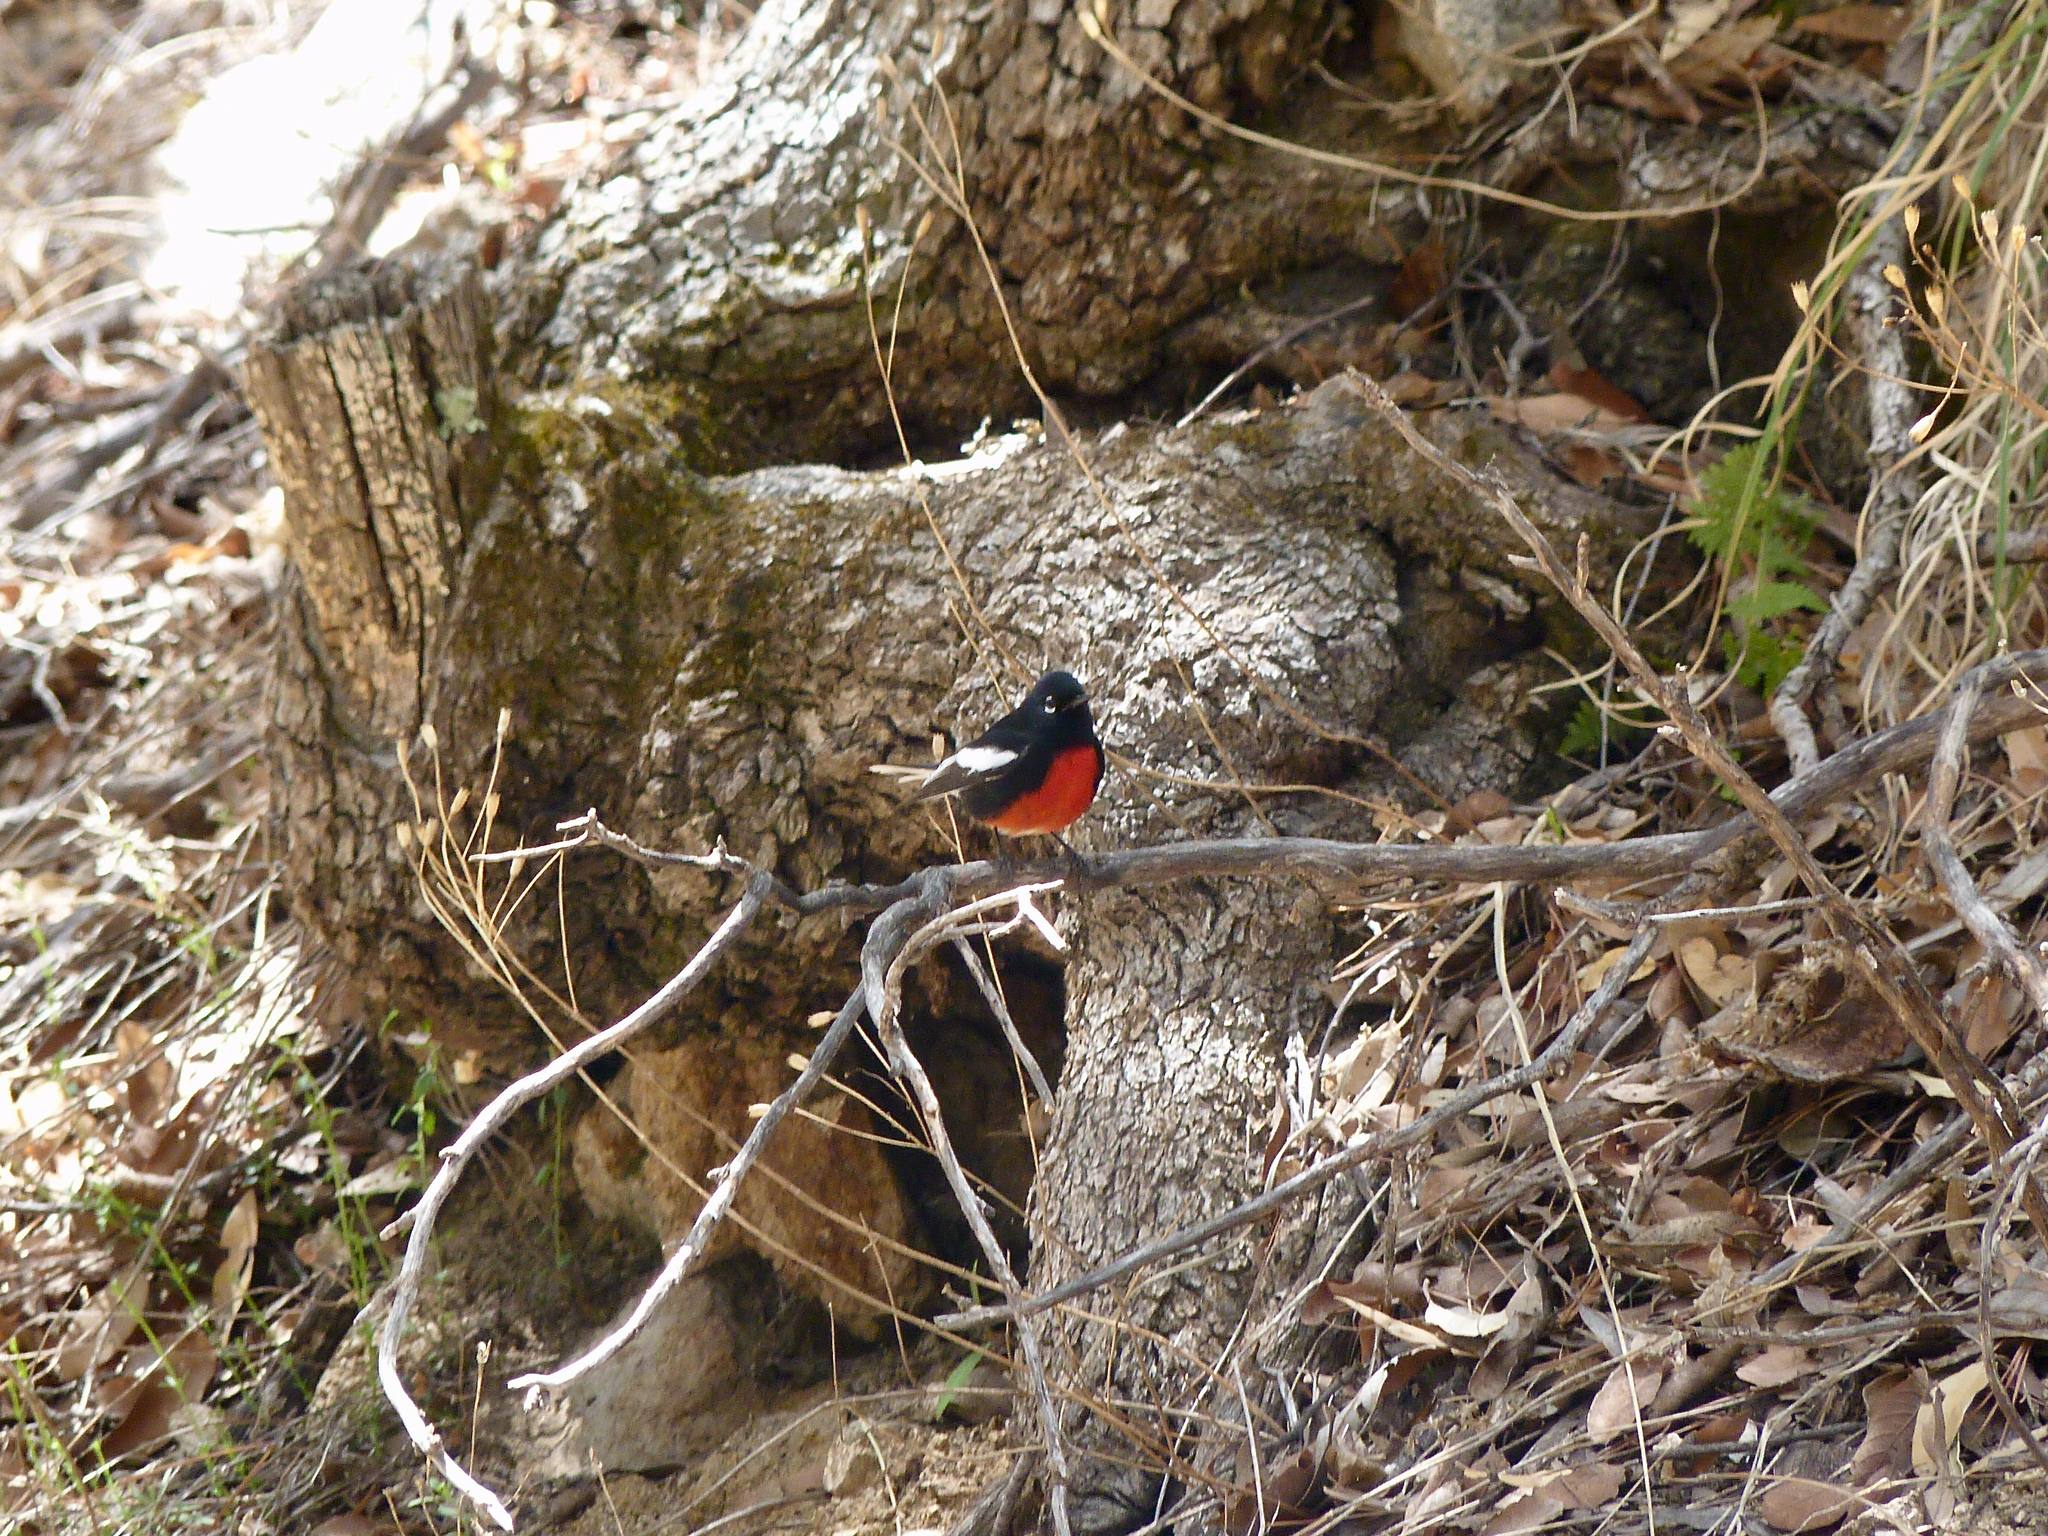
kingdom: Animalia
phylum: Chordata
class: Aves
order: Passeriformes
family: Parulidae
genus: Myioborus
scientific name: Myioborus pictus
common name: Painted whitestart
